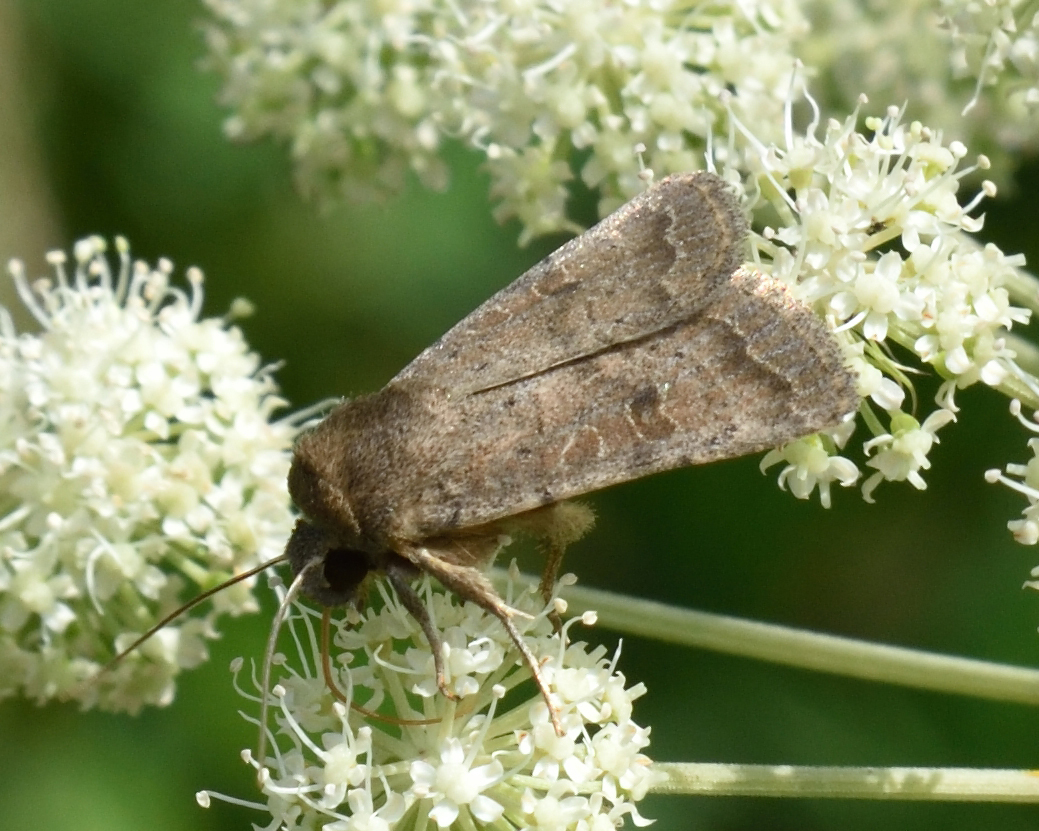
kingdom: Animalia
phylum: Arthropoda
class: Insecta
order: Lepidoptera
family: Noctuidae
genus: Hoplodrina
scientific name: Hoplodrina blanda
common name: Rustic
